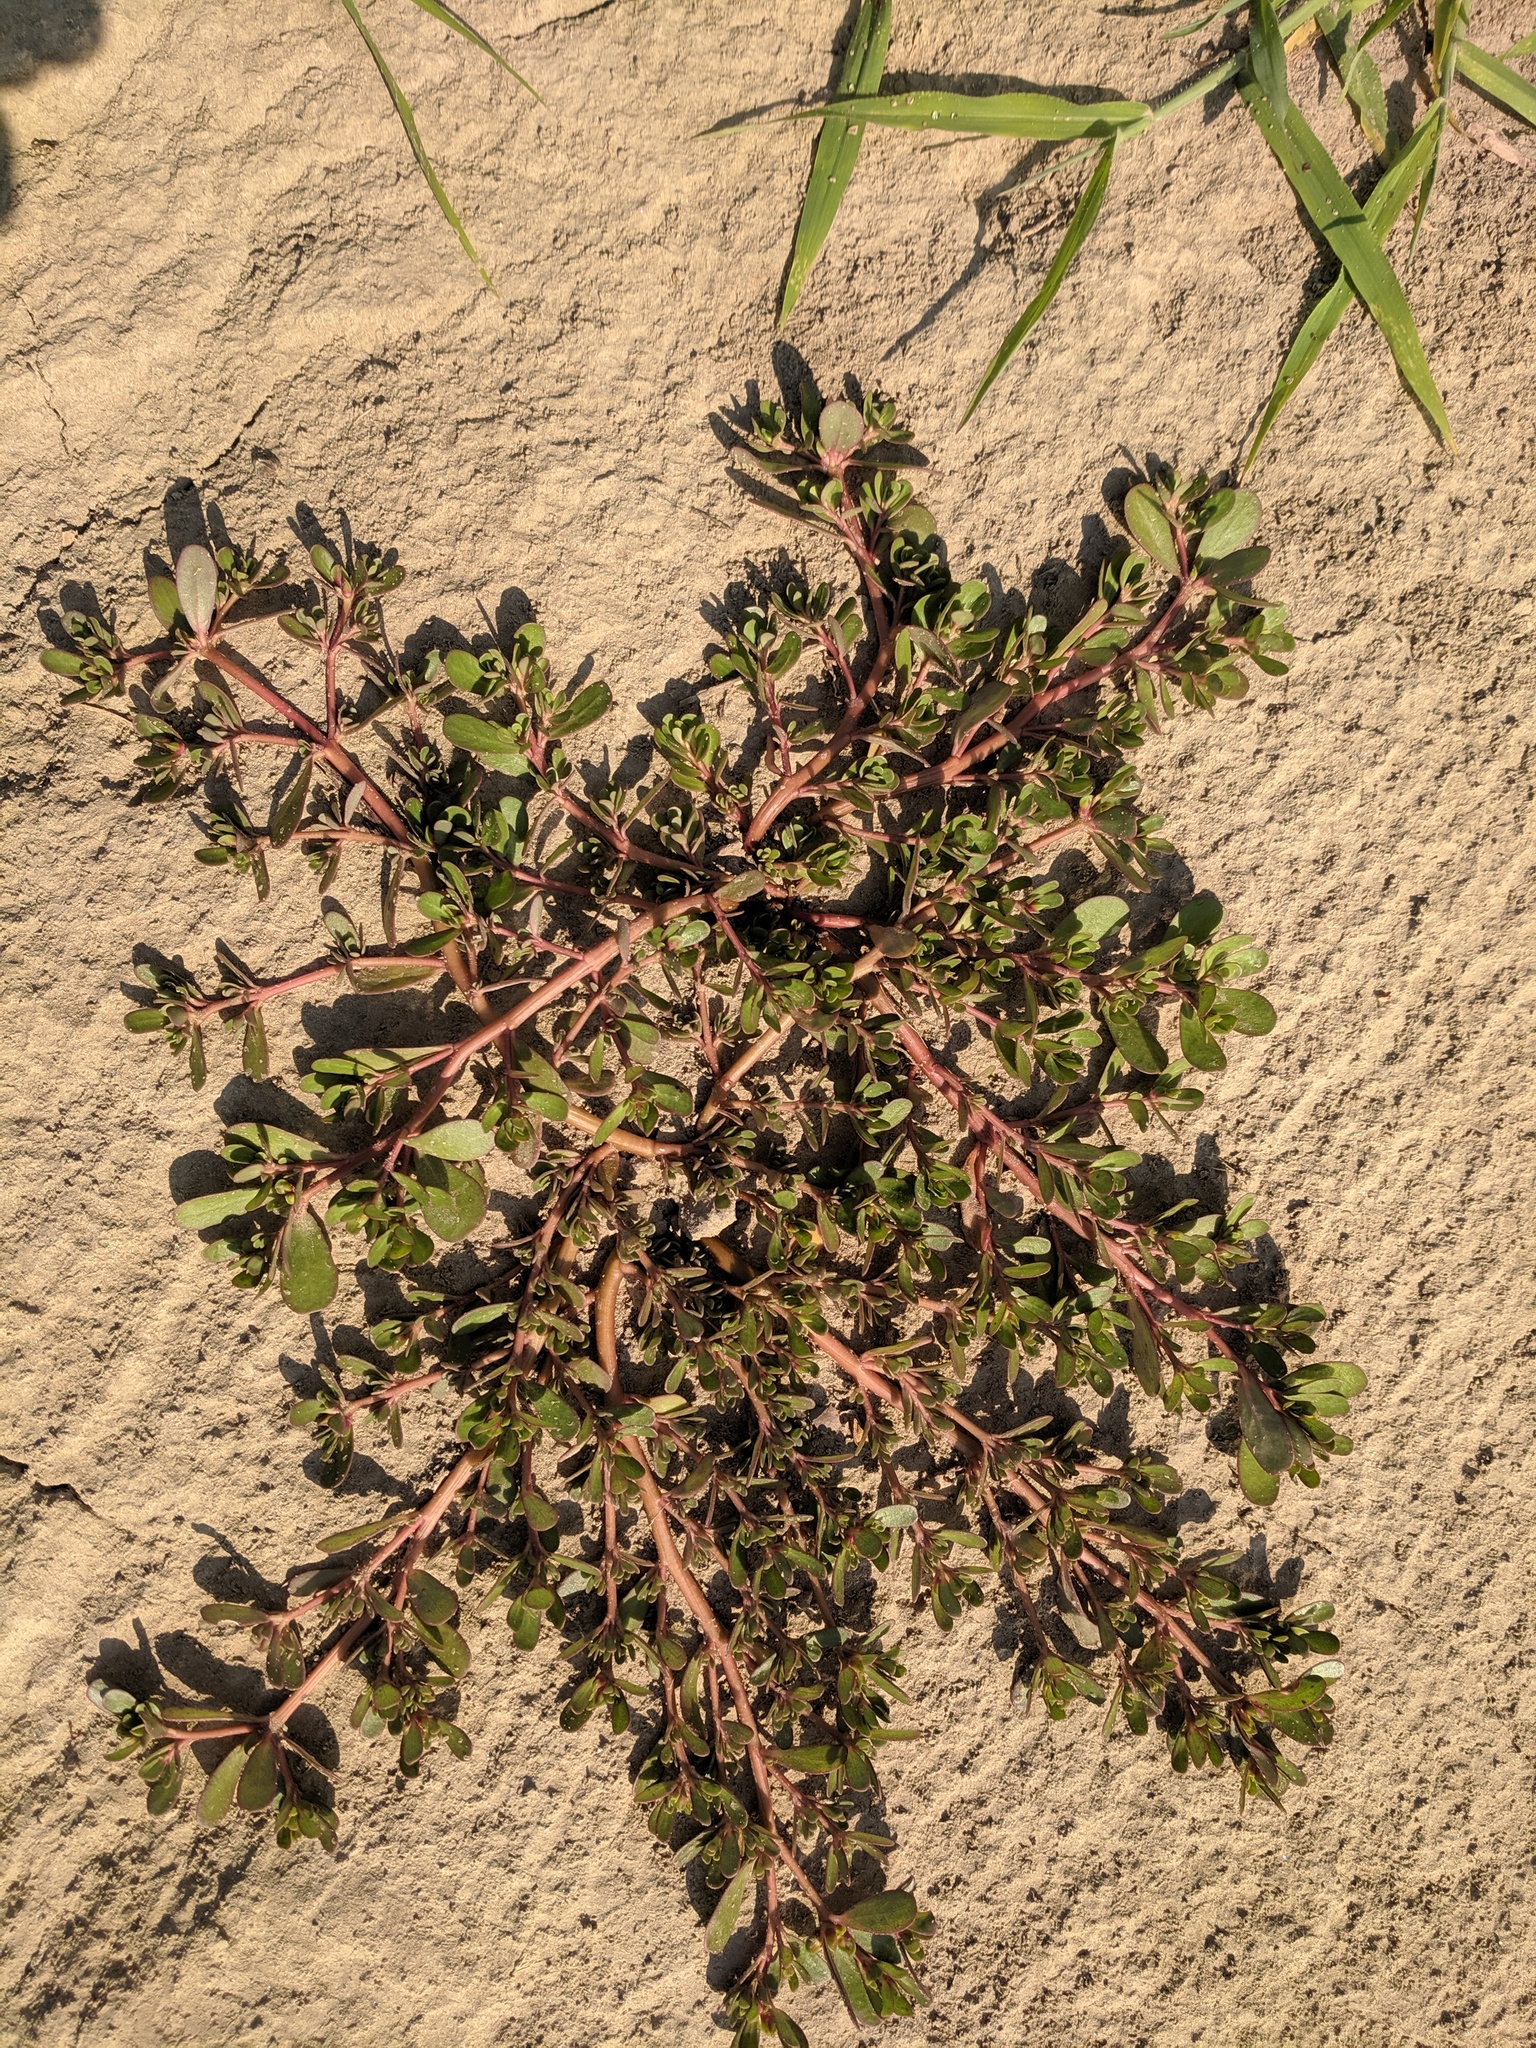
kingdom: Plantae
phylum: Tracheophyta
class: Magnoliopsida
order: Caryophyllales
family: Portulacaceae
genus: Portulaca
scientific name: Portulaca oleracea
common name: Common purslane
